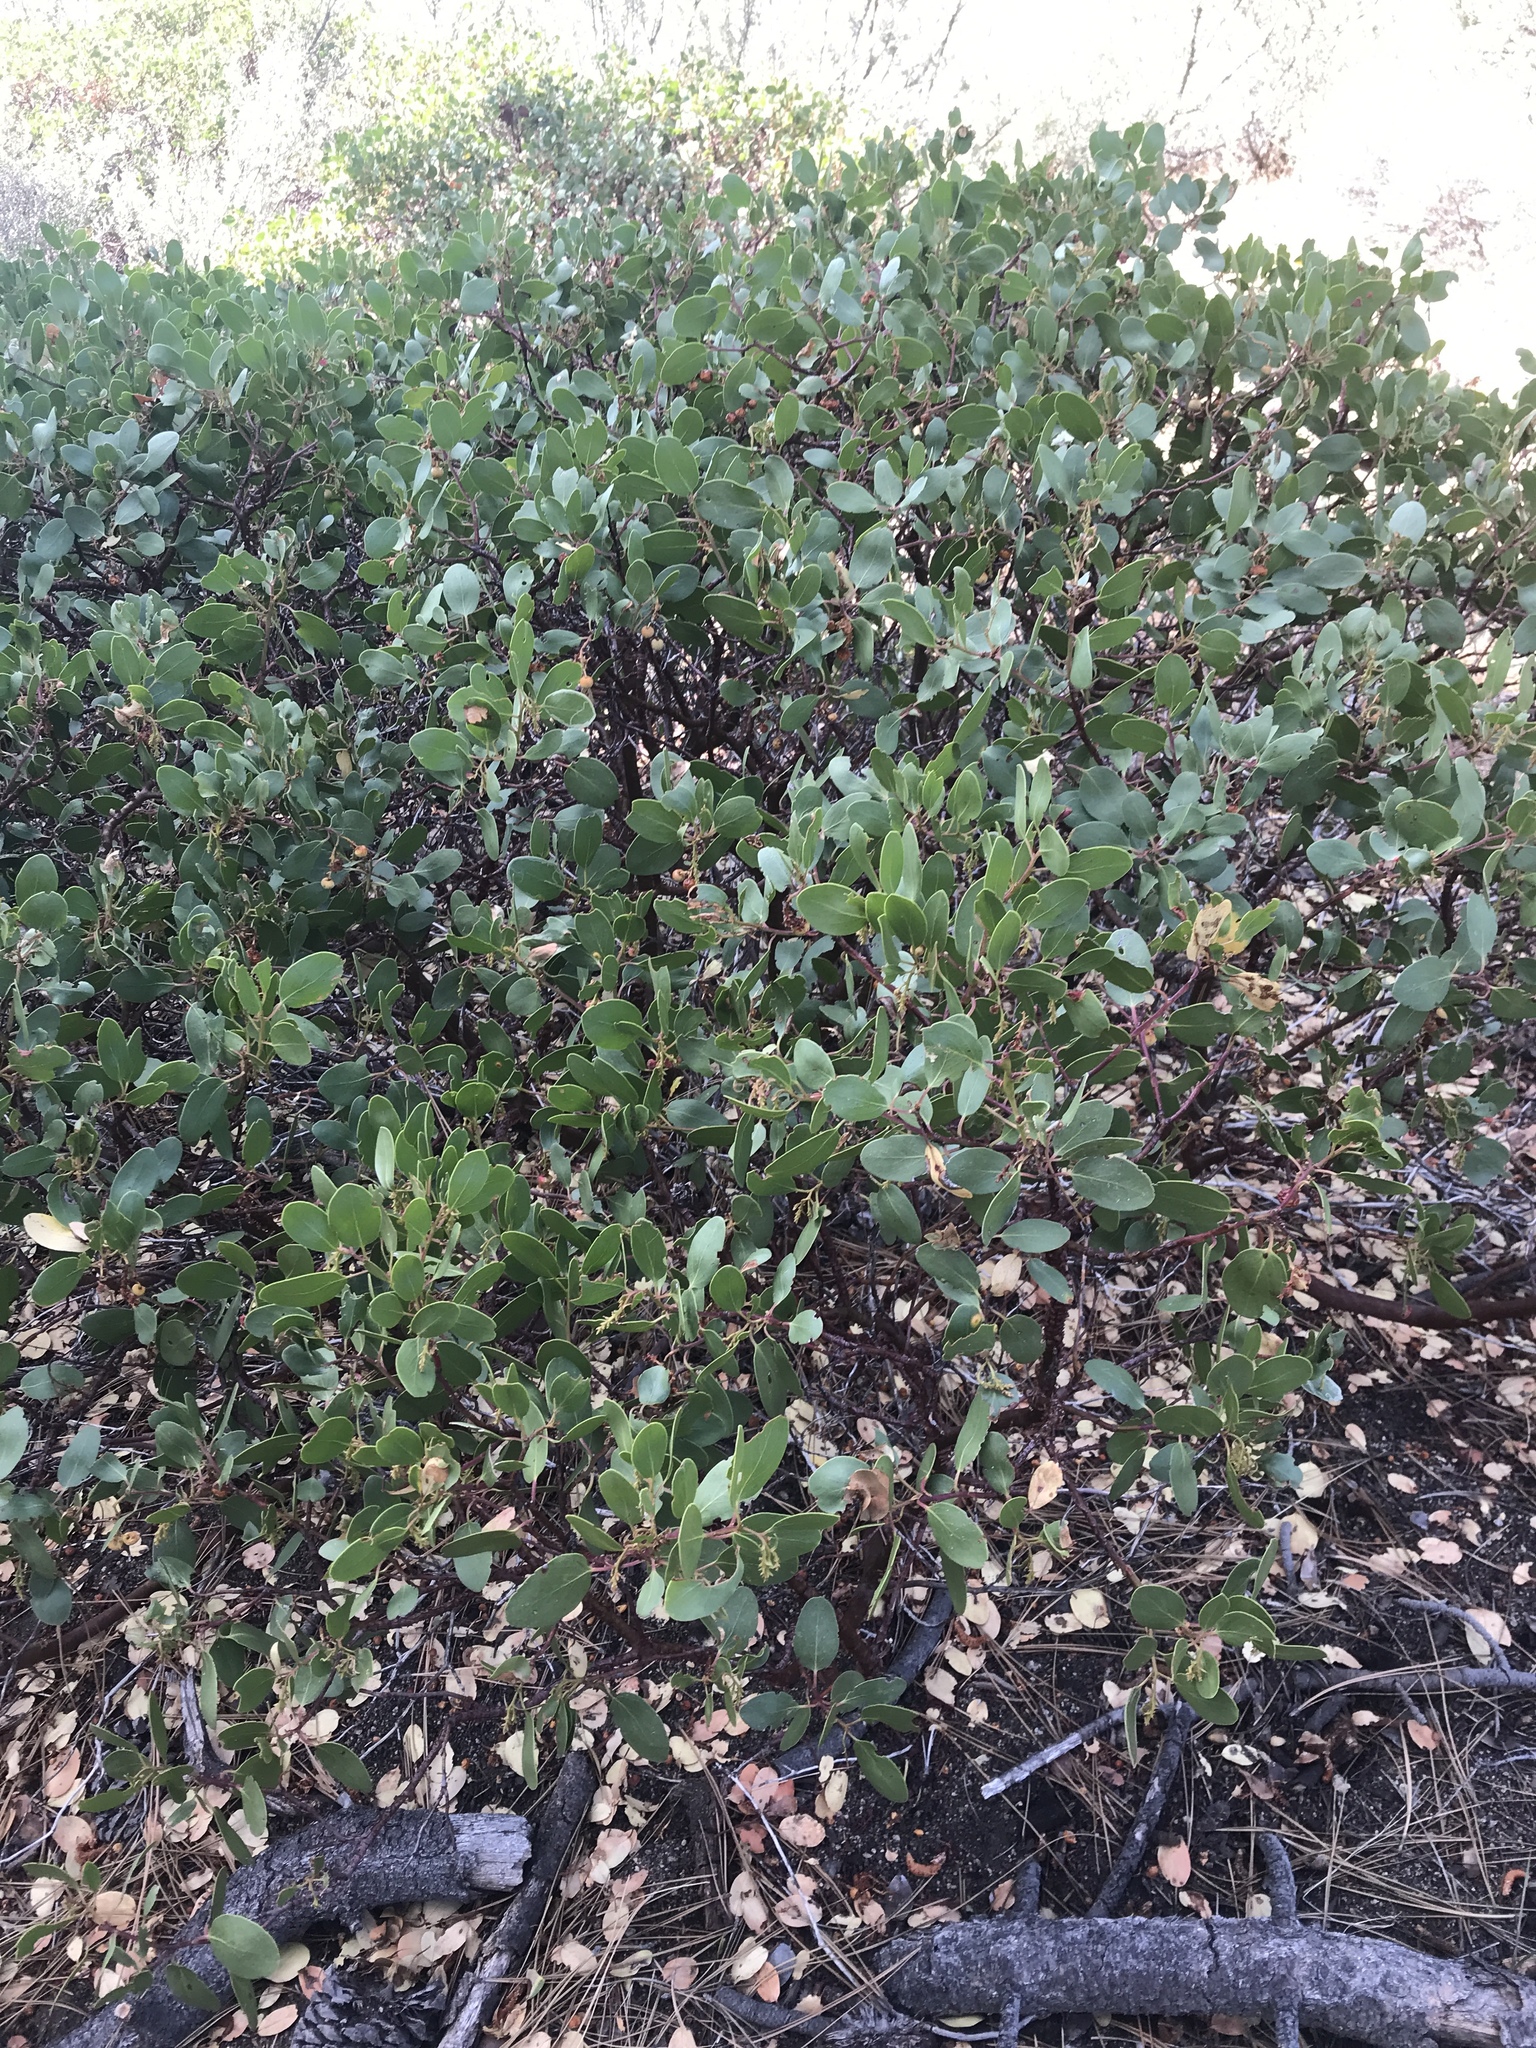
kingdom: Plantae
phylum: Tracheophyta
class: Magnoliopsida
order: Ericales
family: Ericaceae
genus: Arctostaphylos
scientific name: Arctostaphylos patula
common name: Green-leaf manzanita
